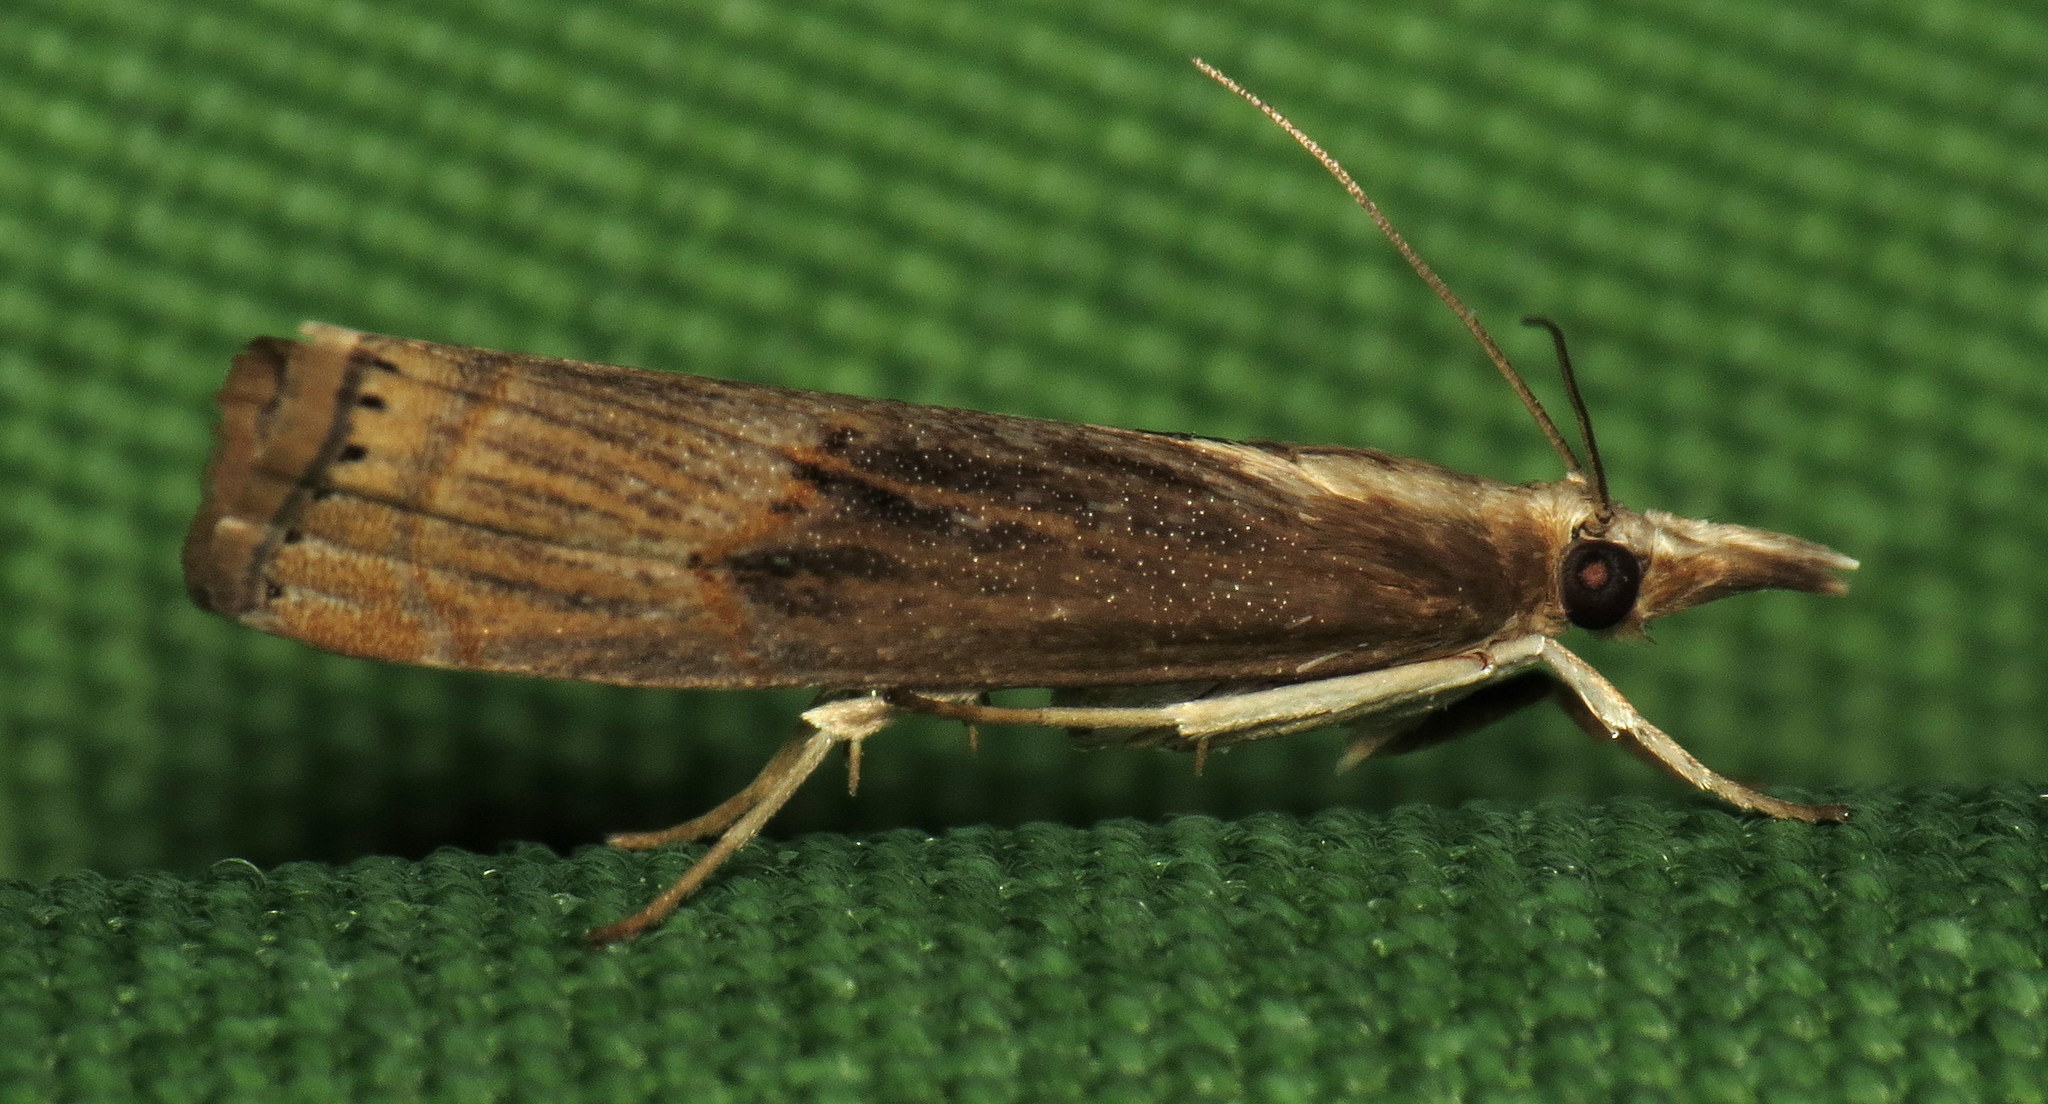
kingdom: Animalia
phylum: Arthropoda
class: Insecta
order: Lepidoptera
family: Crambidae
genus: Parapediasia
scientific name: Parapediasia teterellus
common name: Bluegrass webworm moth
